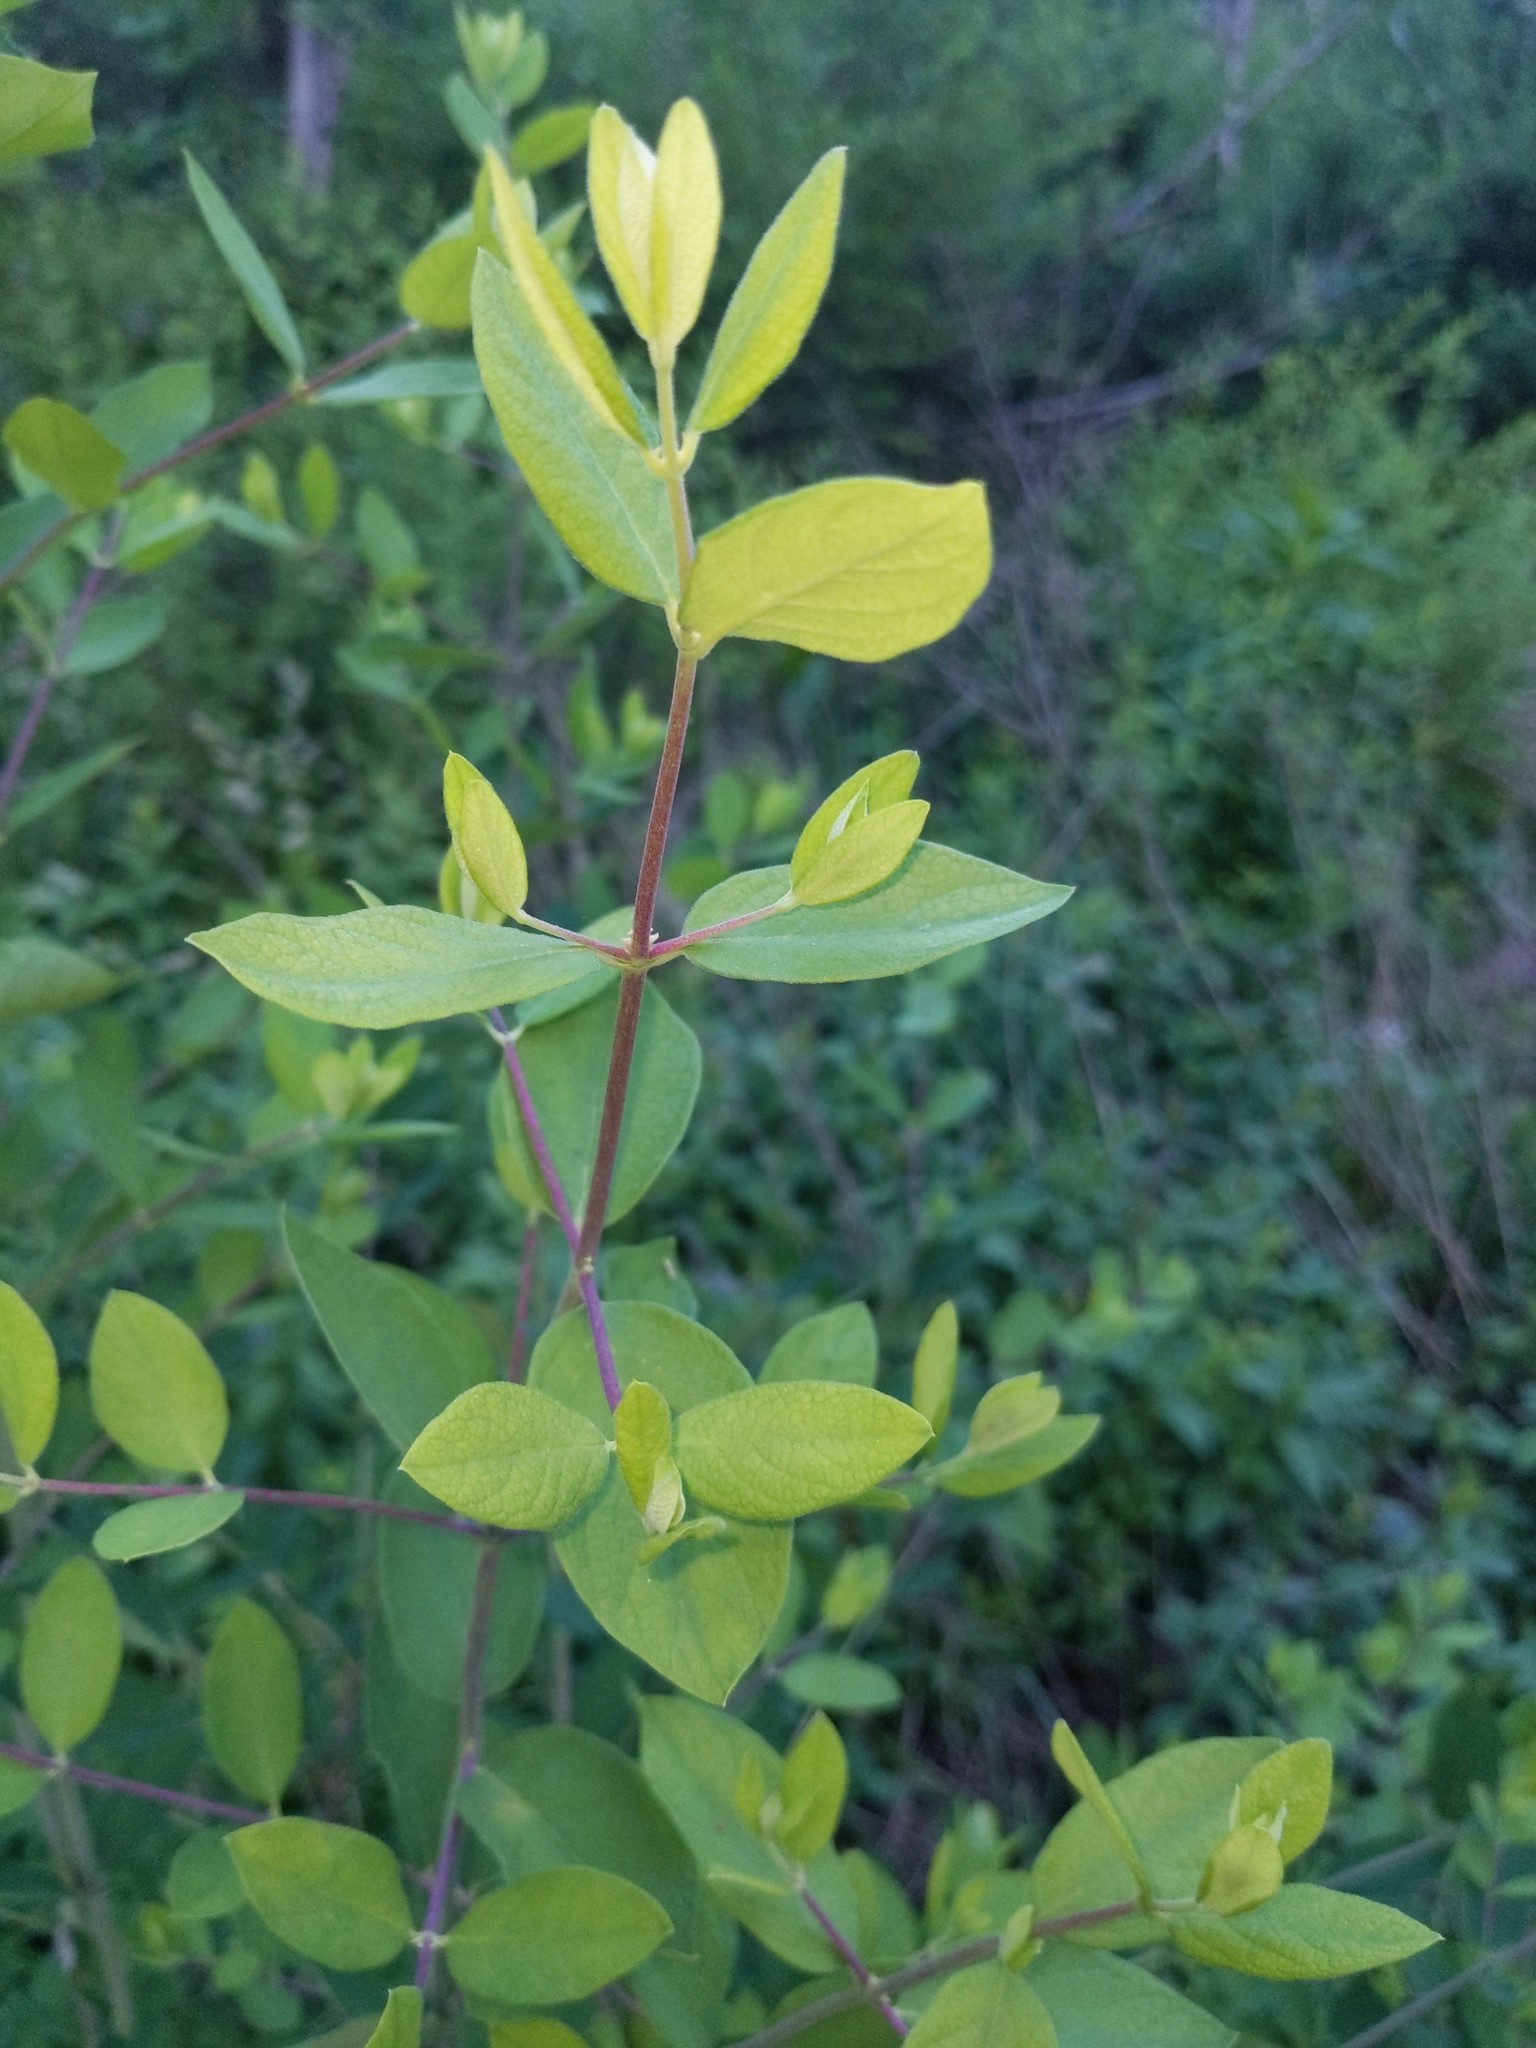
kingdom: Plantae
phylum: Tracheophyta
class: Magnoliopsida
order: Dipsacales
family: Caprifoliaceae
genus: Lonicera
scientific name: Lonicera morrowii
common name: Morrow's honeysuckle
